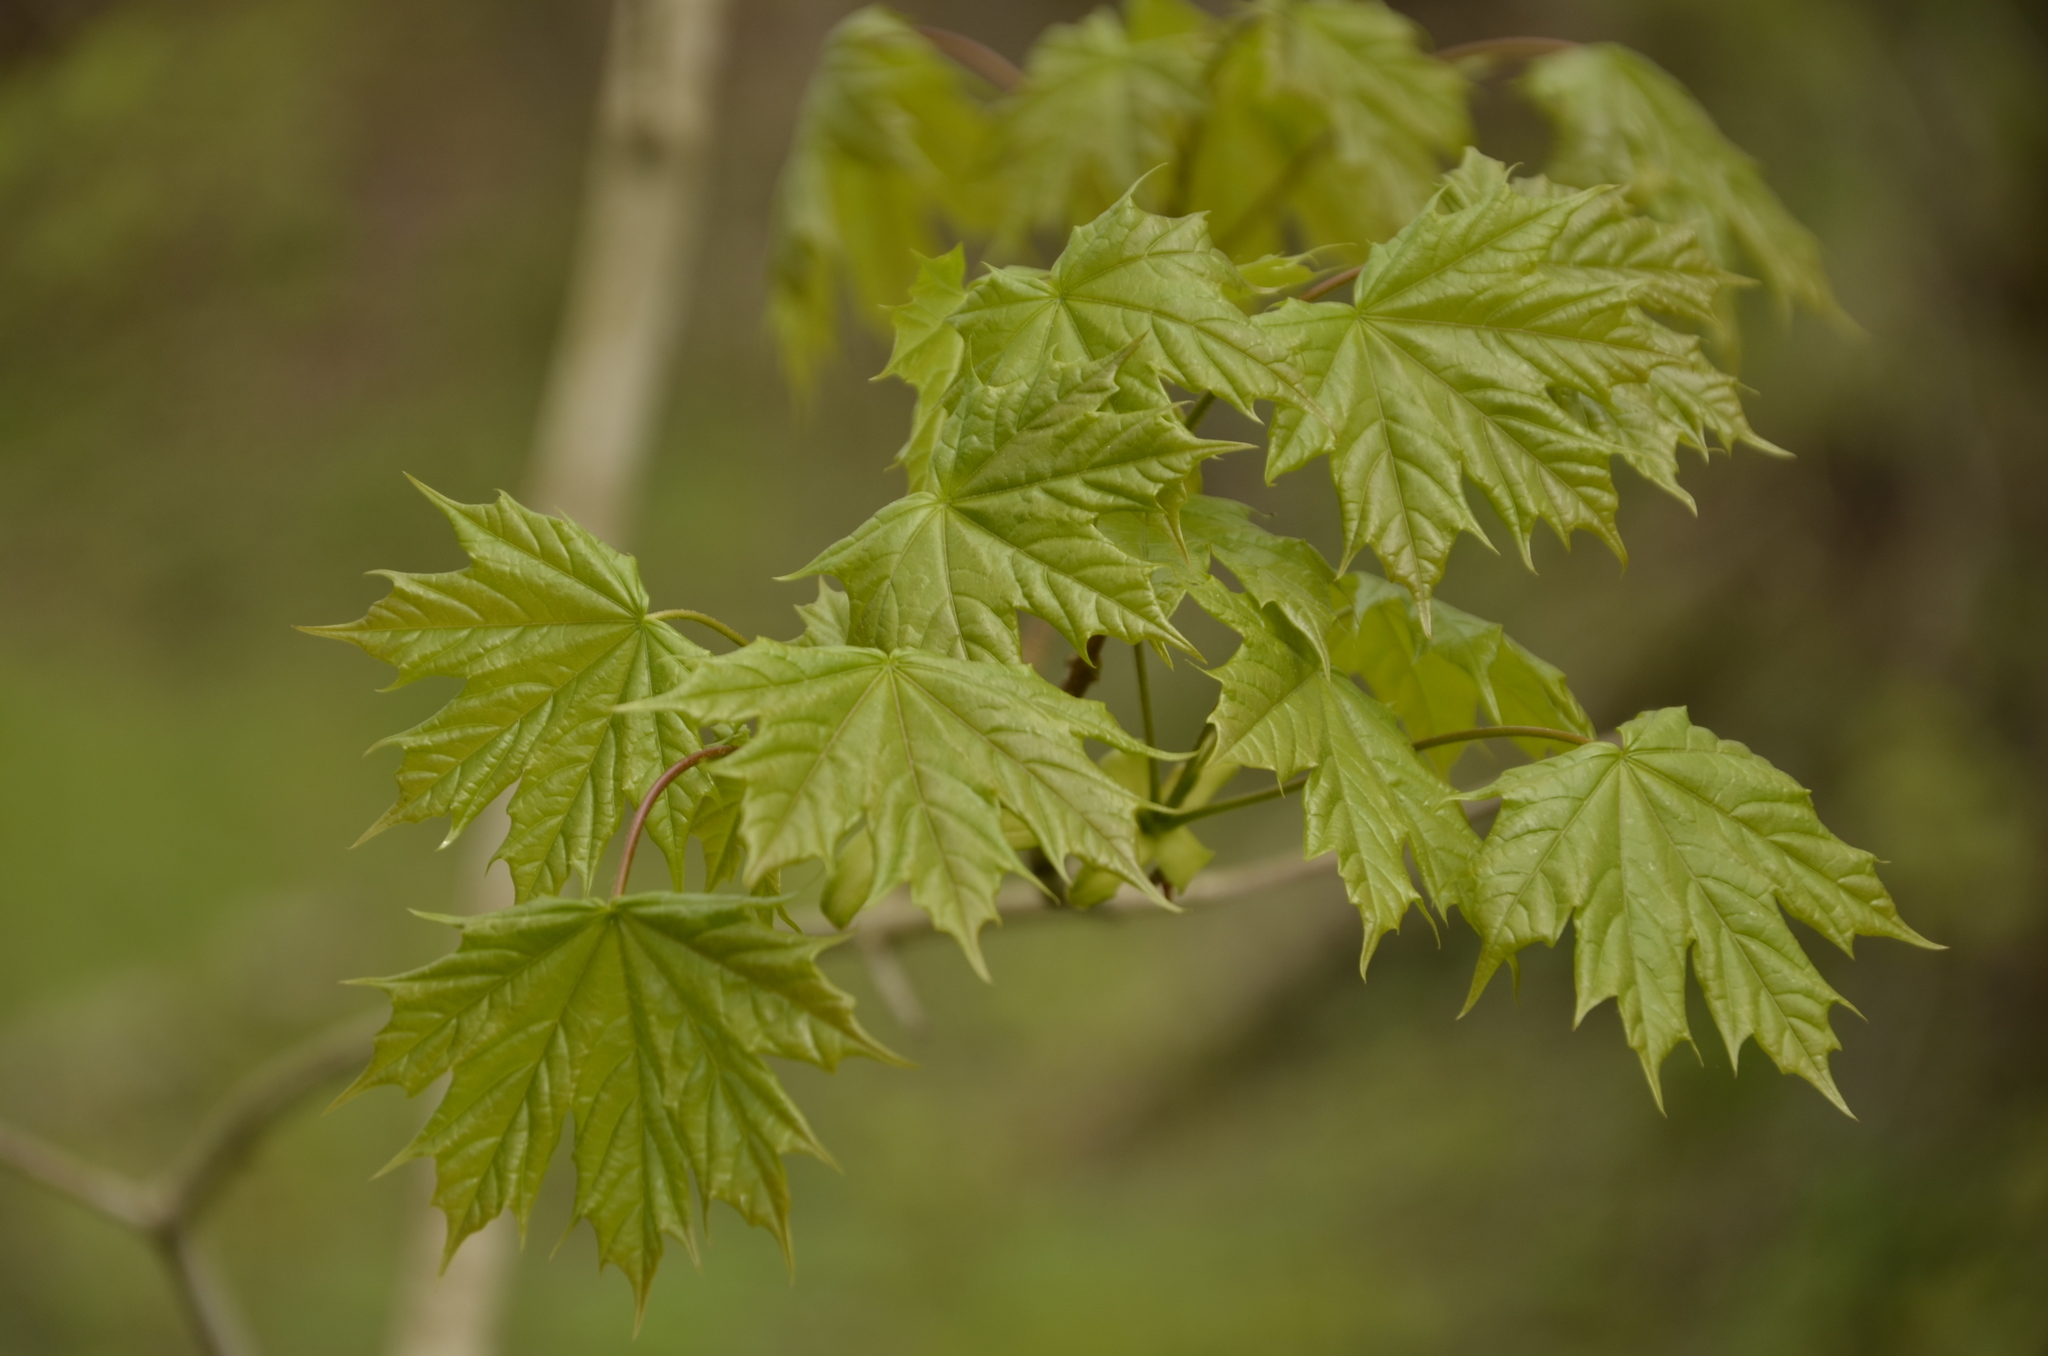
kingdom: Plantae
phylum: Tracheophyta
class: Magnoliopsida
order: Sapindales
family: Sapindaceae
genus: Acer
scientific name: Acer platanoides
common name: Norway maple
